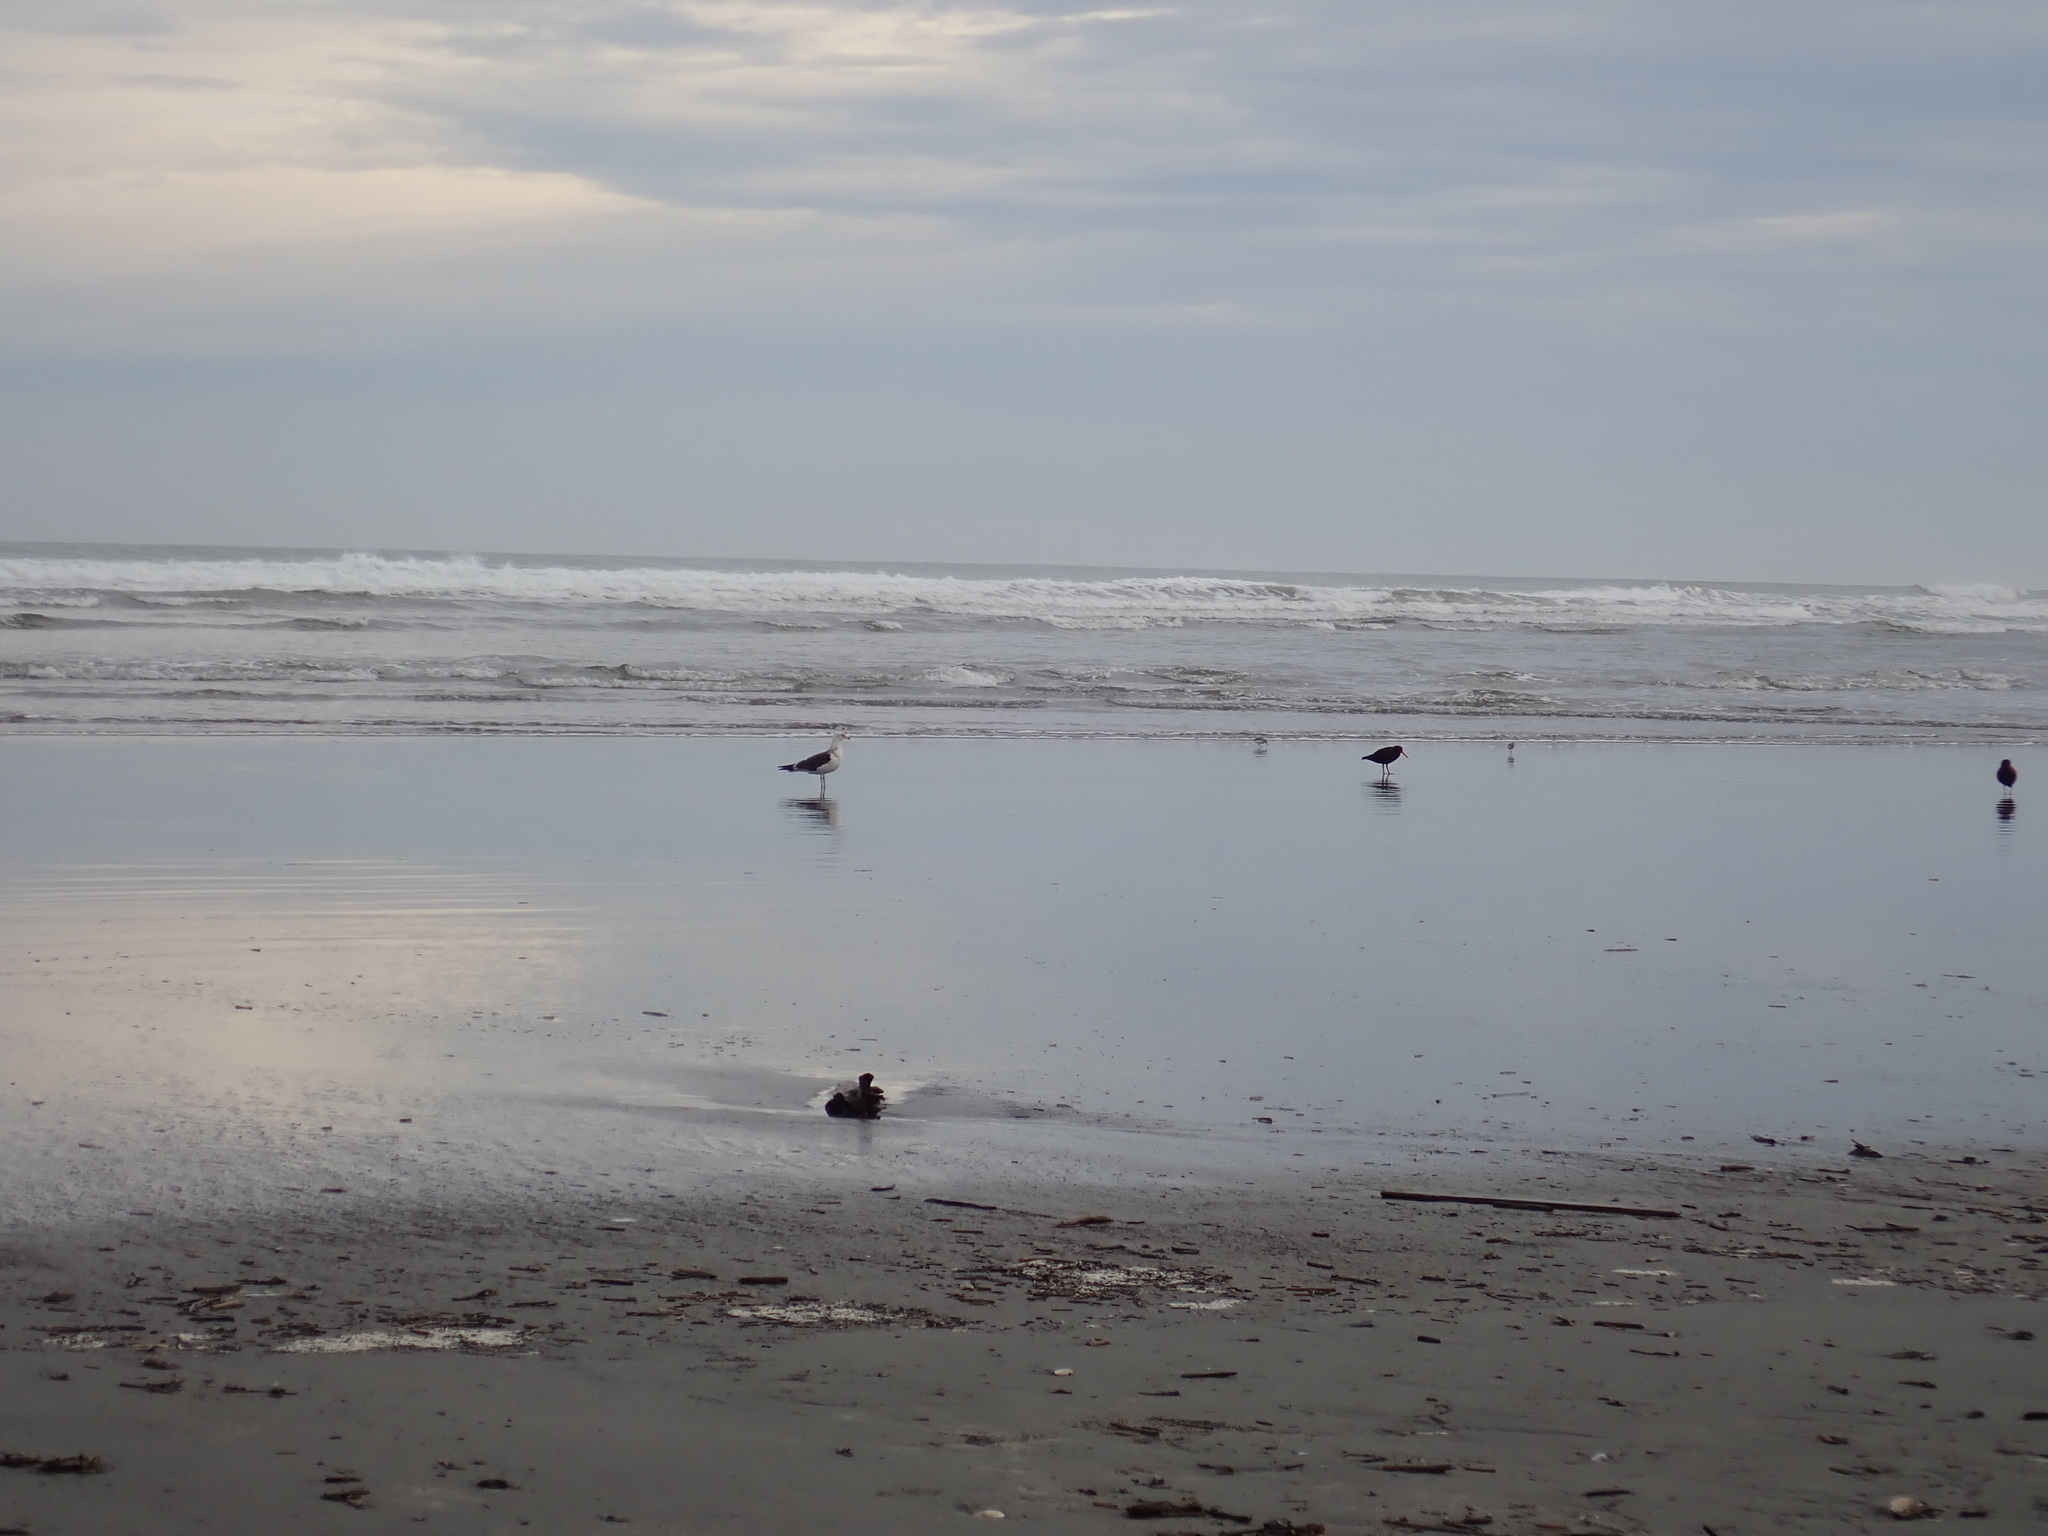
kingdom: Animalia
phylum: Chordata
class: Aves
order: Charadriiformes
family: Haematopodidae
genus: Haematopus
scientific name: Haematopus unicolor
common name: Variable oystercatcher
